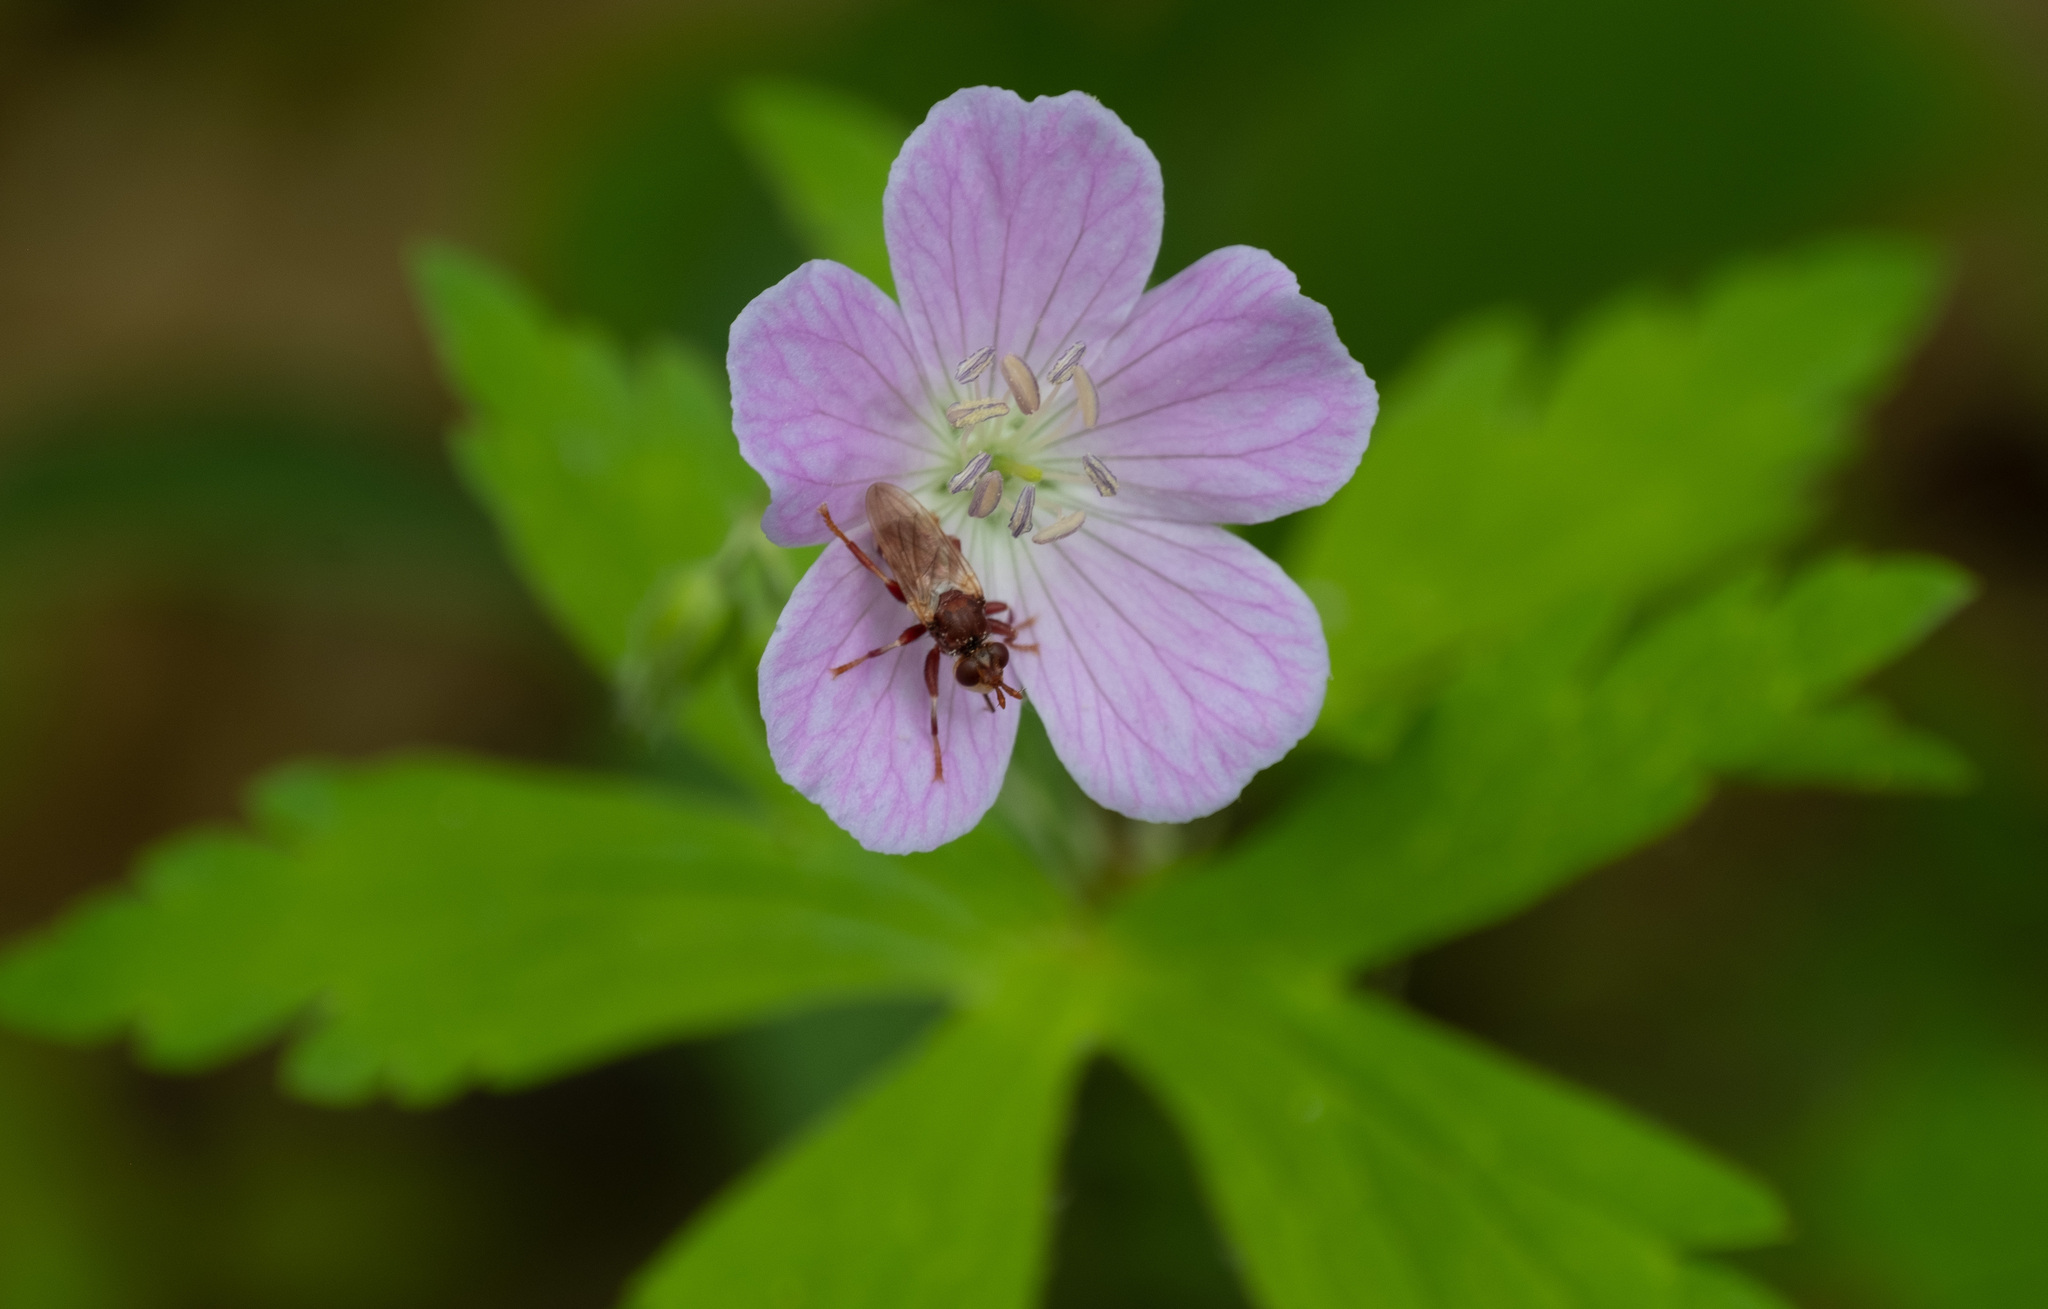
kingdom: Plantae
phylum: Tracheophyta
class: Magnoliopsida
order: Geraniales
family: Geraniaceae
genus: Geranium
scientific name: Geranium maculatum
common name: Spotted geranium
